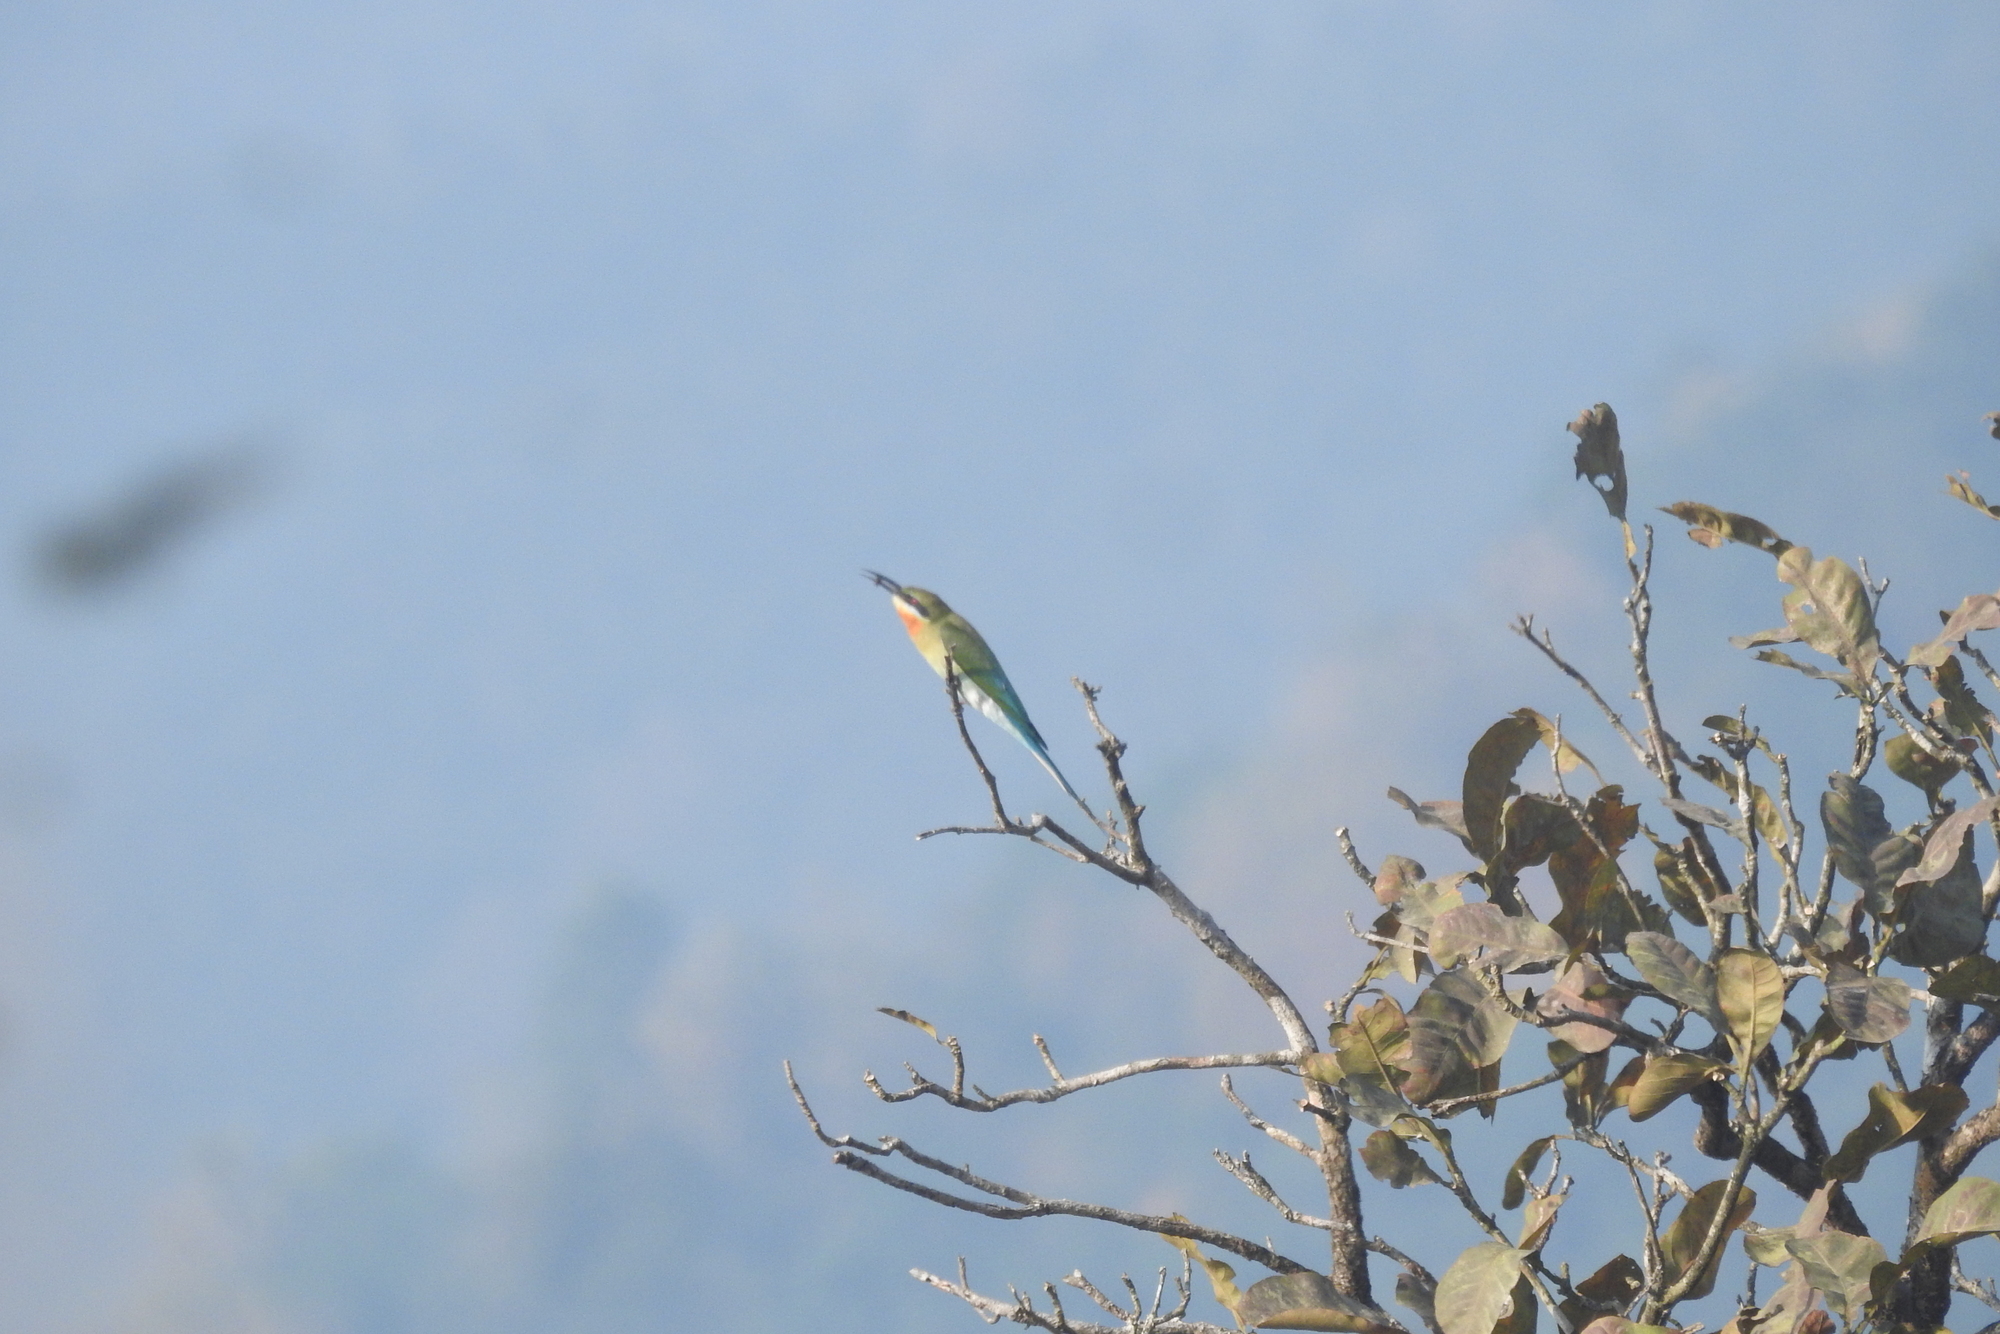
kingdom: Animalia
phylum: Chordata
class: Aves
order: Coraciiformes
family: Meropidae
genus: Merops
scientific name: Merops philippinus
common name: Blue-tailed bee-eater
